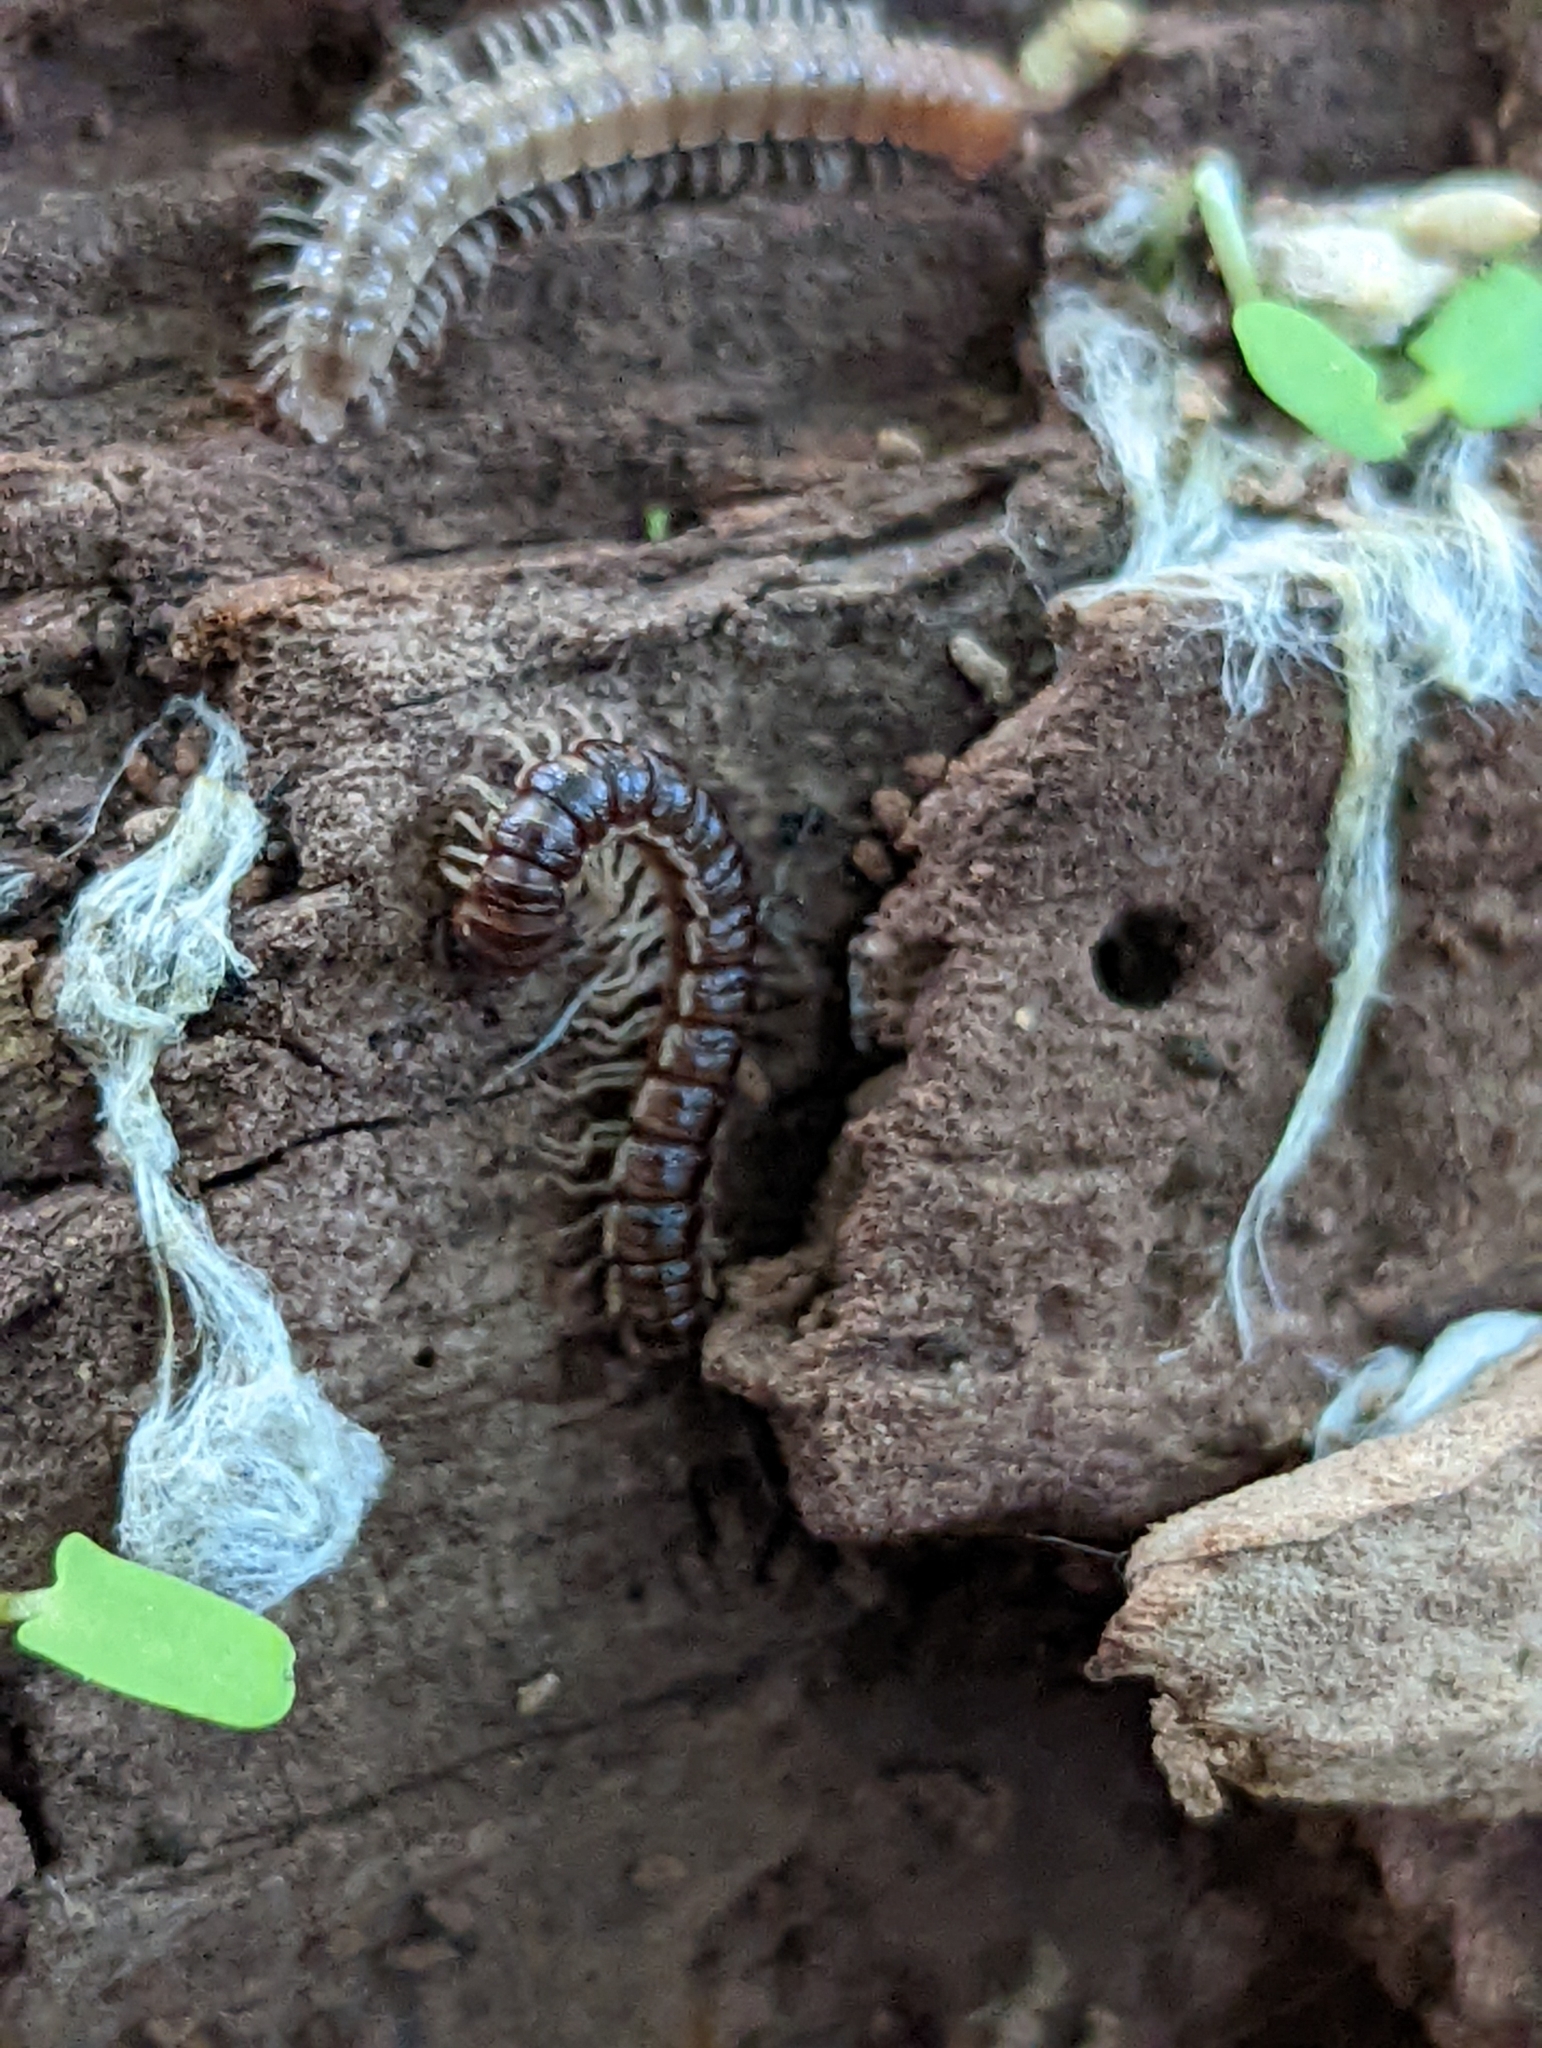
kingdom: Animalia
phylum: Arthropoda
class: Diplopoda
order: Polydesmida
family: Paradoxosomatidae
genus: Oxidus
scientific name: Oxidus gracilis
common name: Greenhouse millipede
